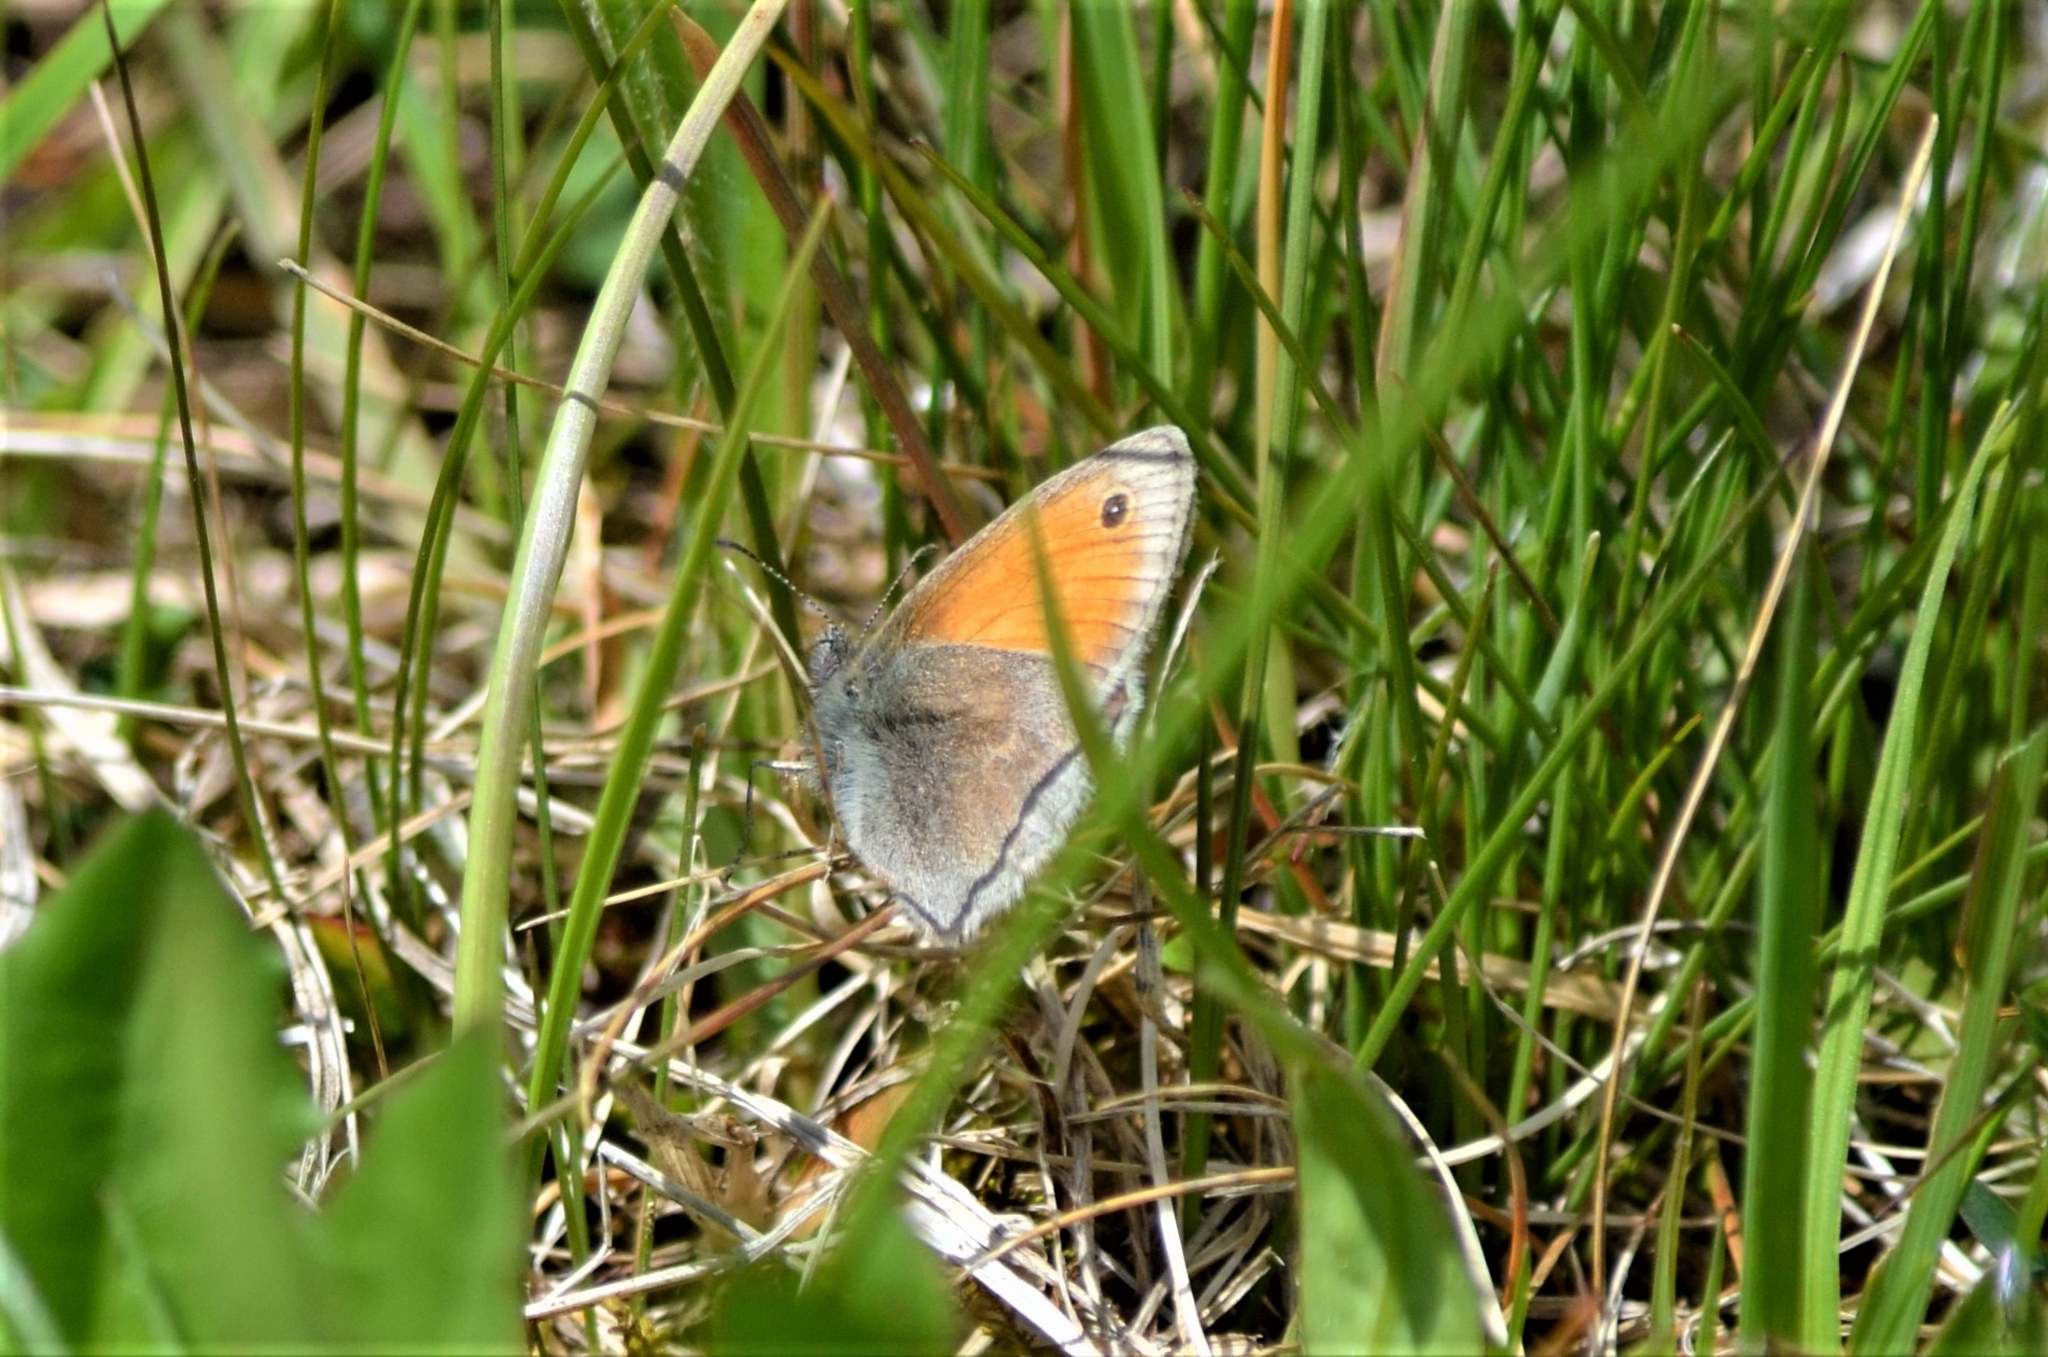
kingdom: Animalia
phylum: Arthropoda
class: Insecta
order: Lepidoptera
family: Nymphalidae
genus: Coenonympha
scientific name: Coenonympha pamphilus
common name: Small heath
